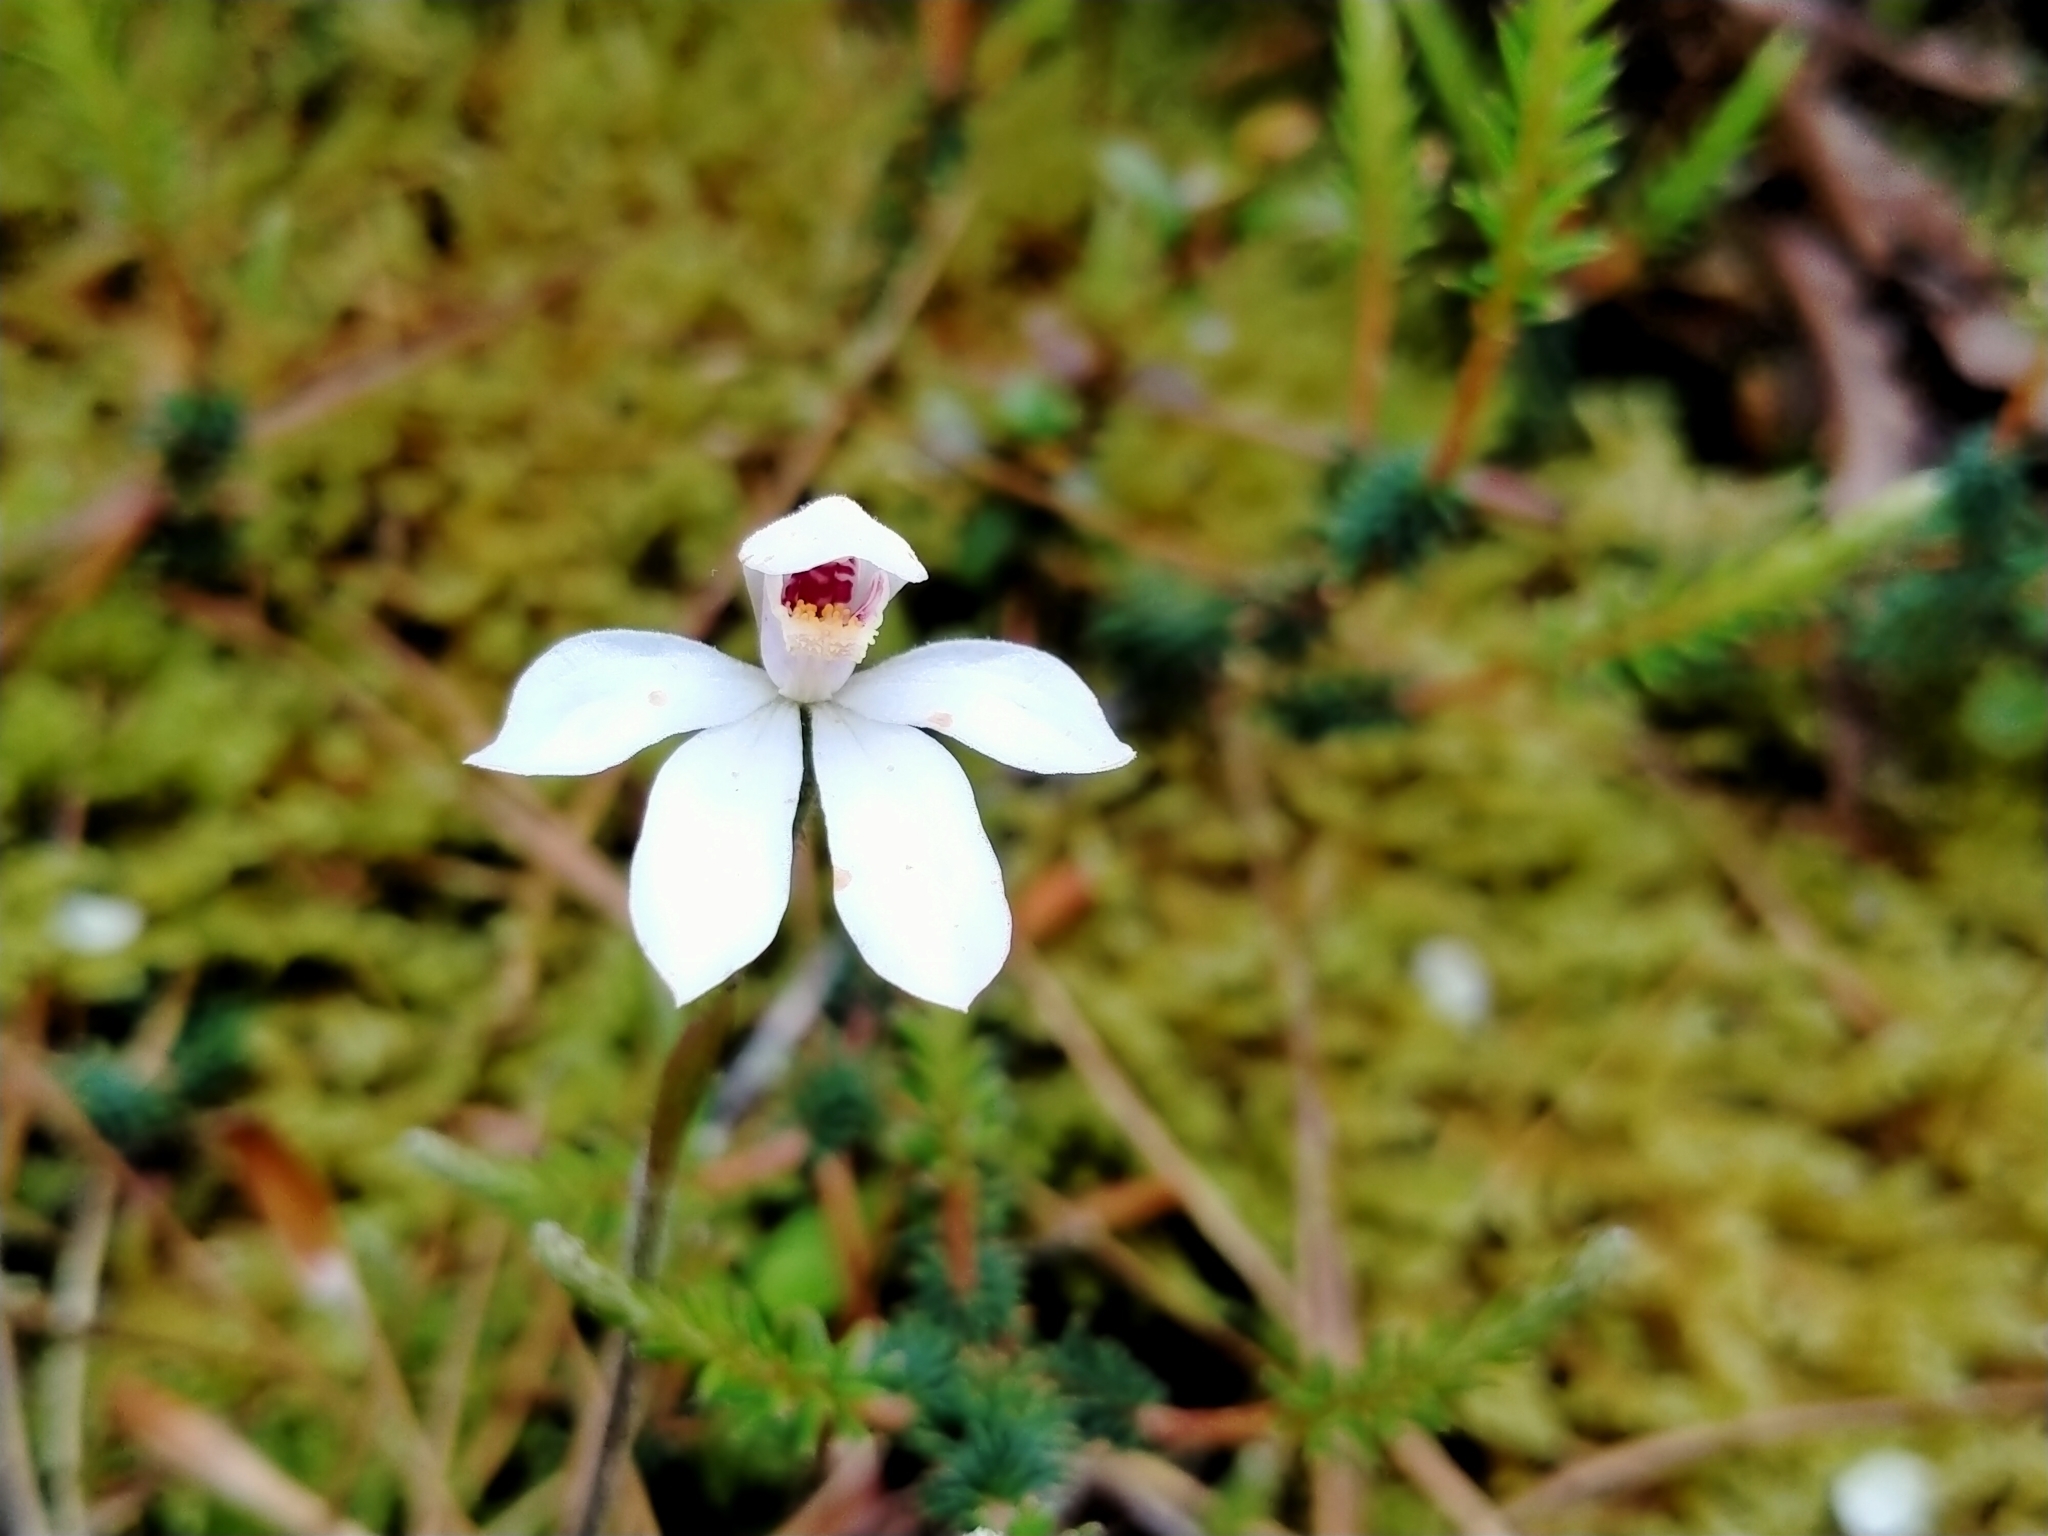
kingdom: Plantae
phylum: Tracheophyta
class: Liliopsida
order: Asparagales
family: Orchidaceae
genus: Caladenia
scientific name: Caladenia lyallii
